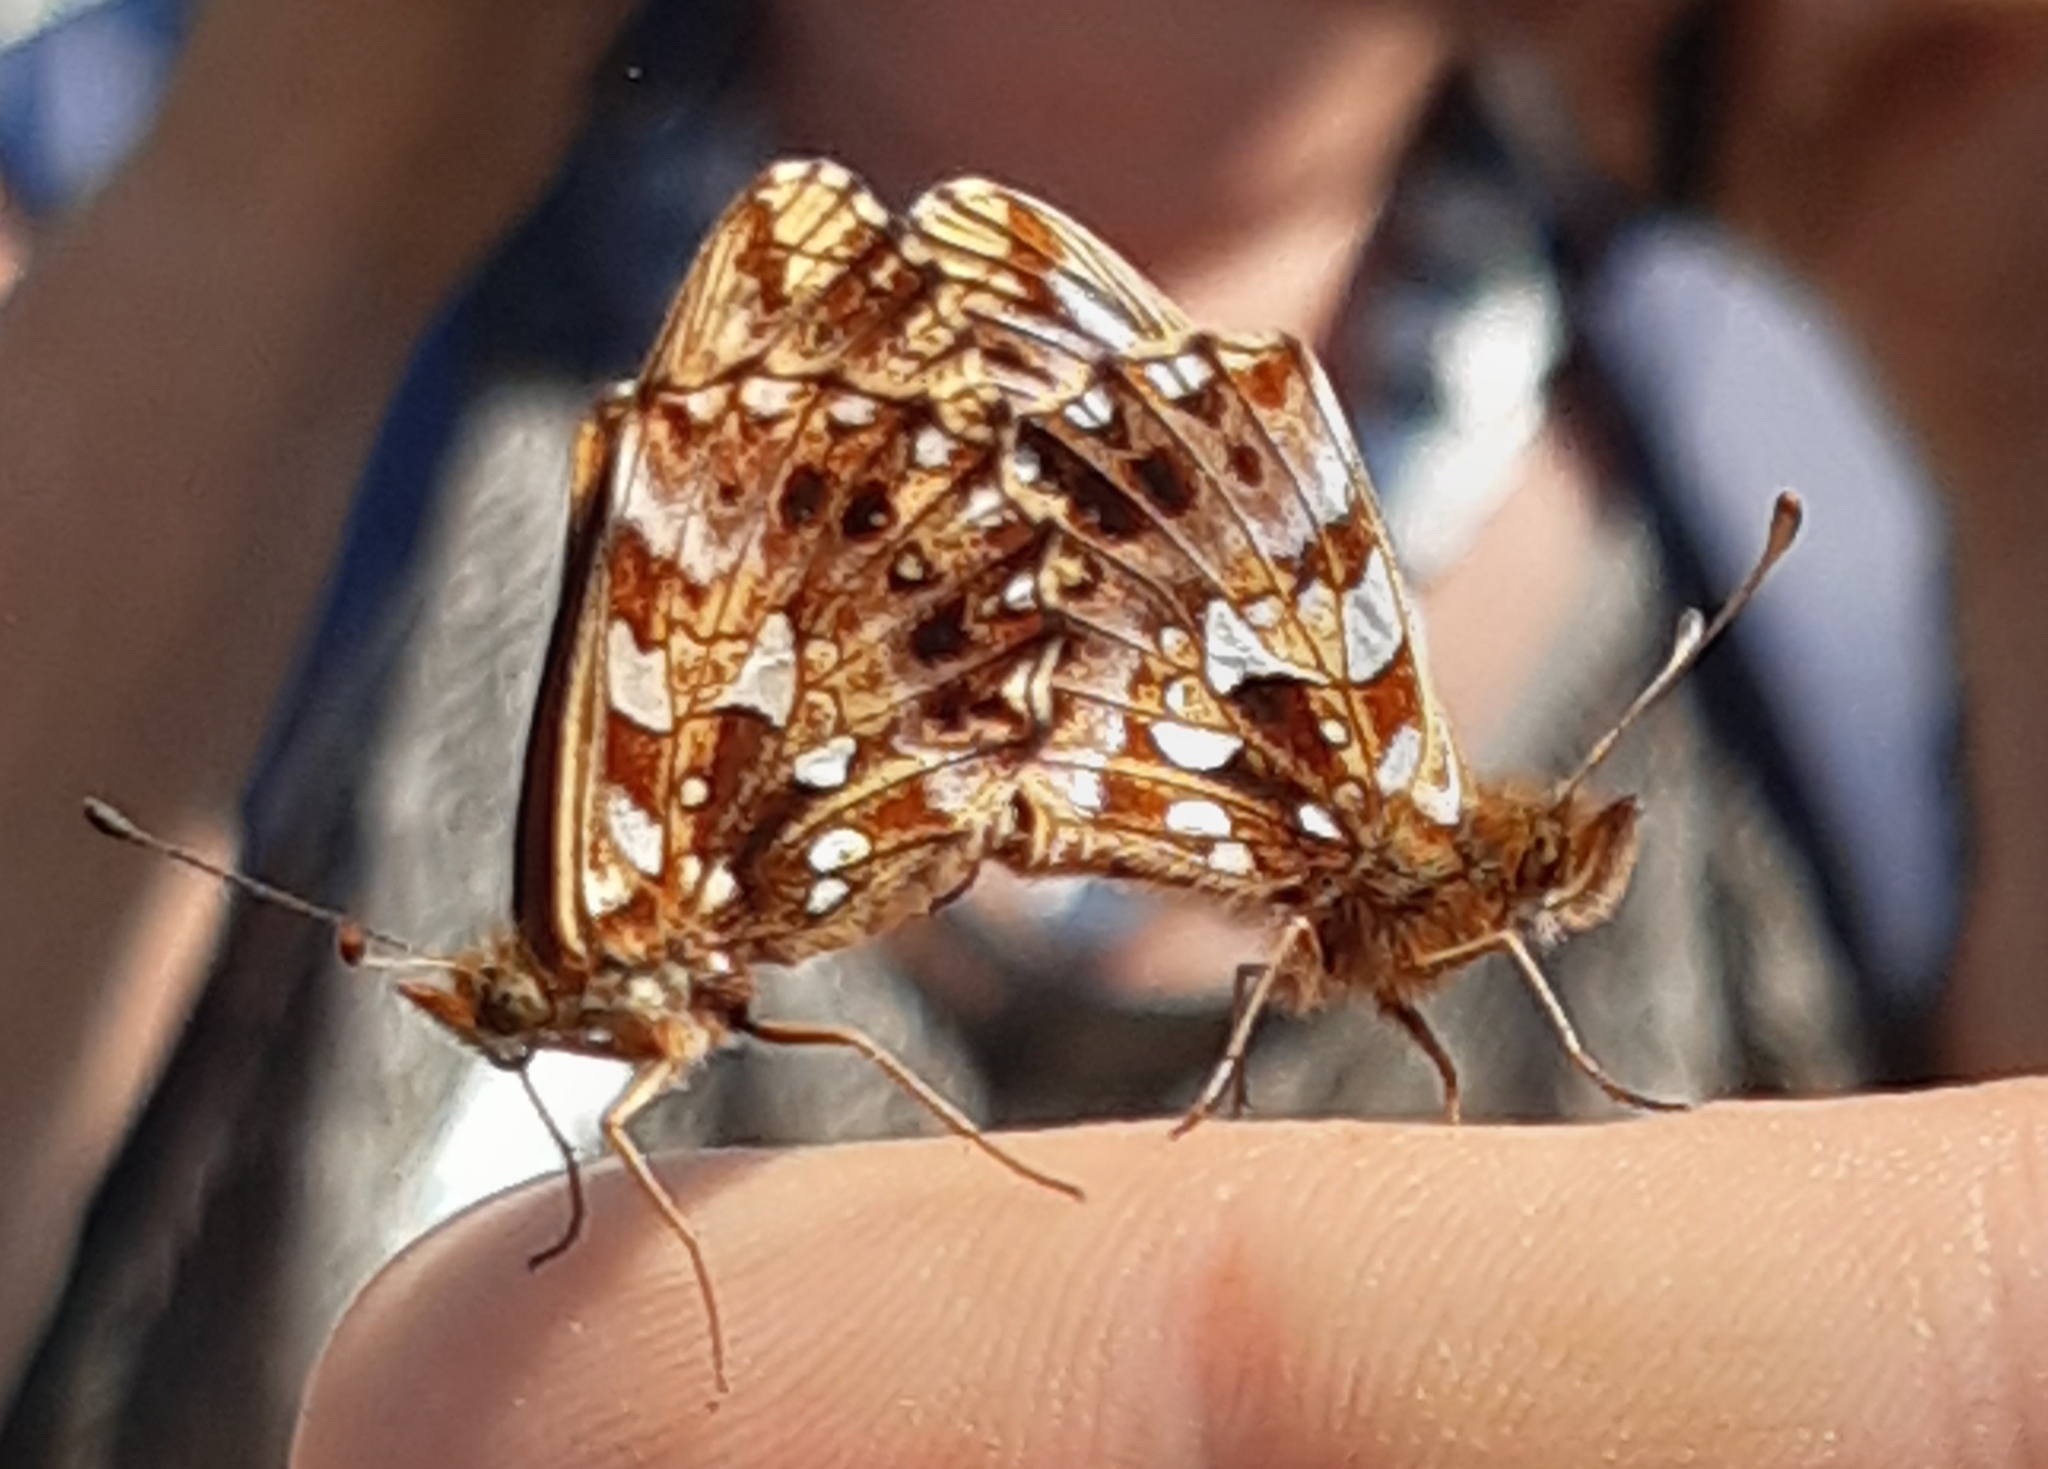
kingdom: Animalia
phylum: Arthropoda
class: Insecta
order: Lepidoptera
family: Nymphalidae
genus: Boloria
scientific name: Boloria dia
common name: Weaver's fritillary
